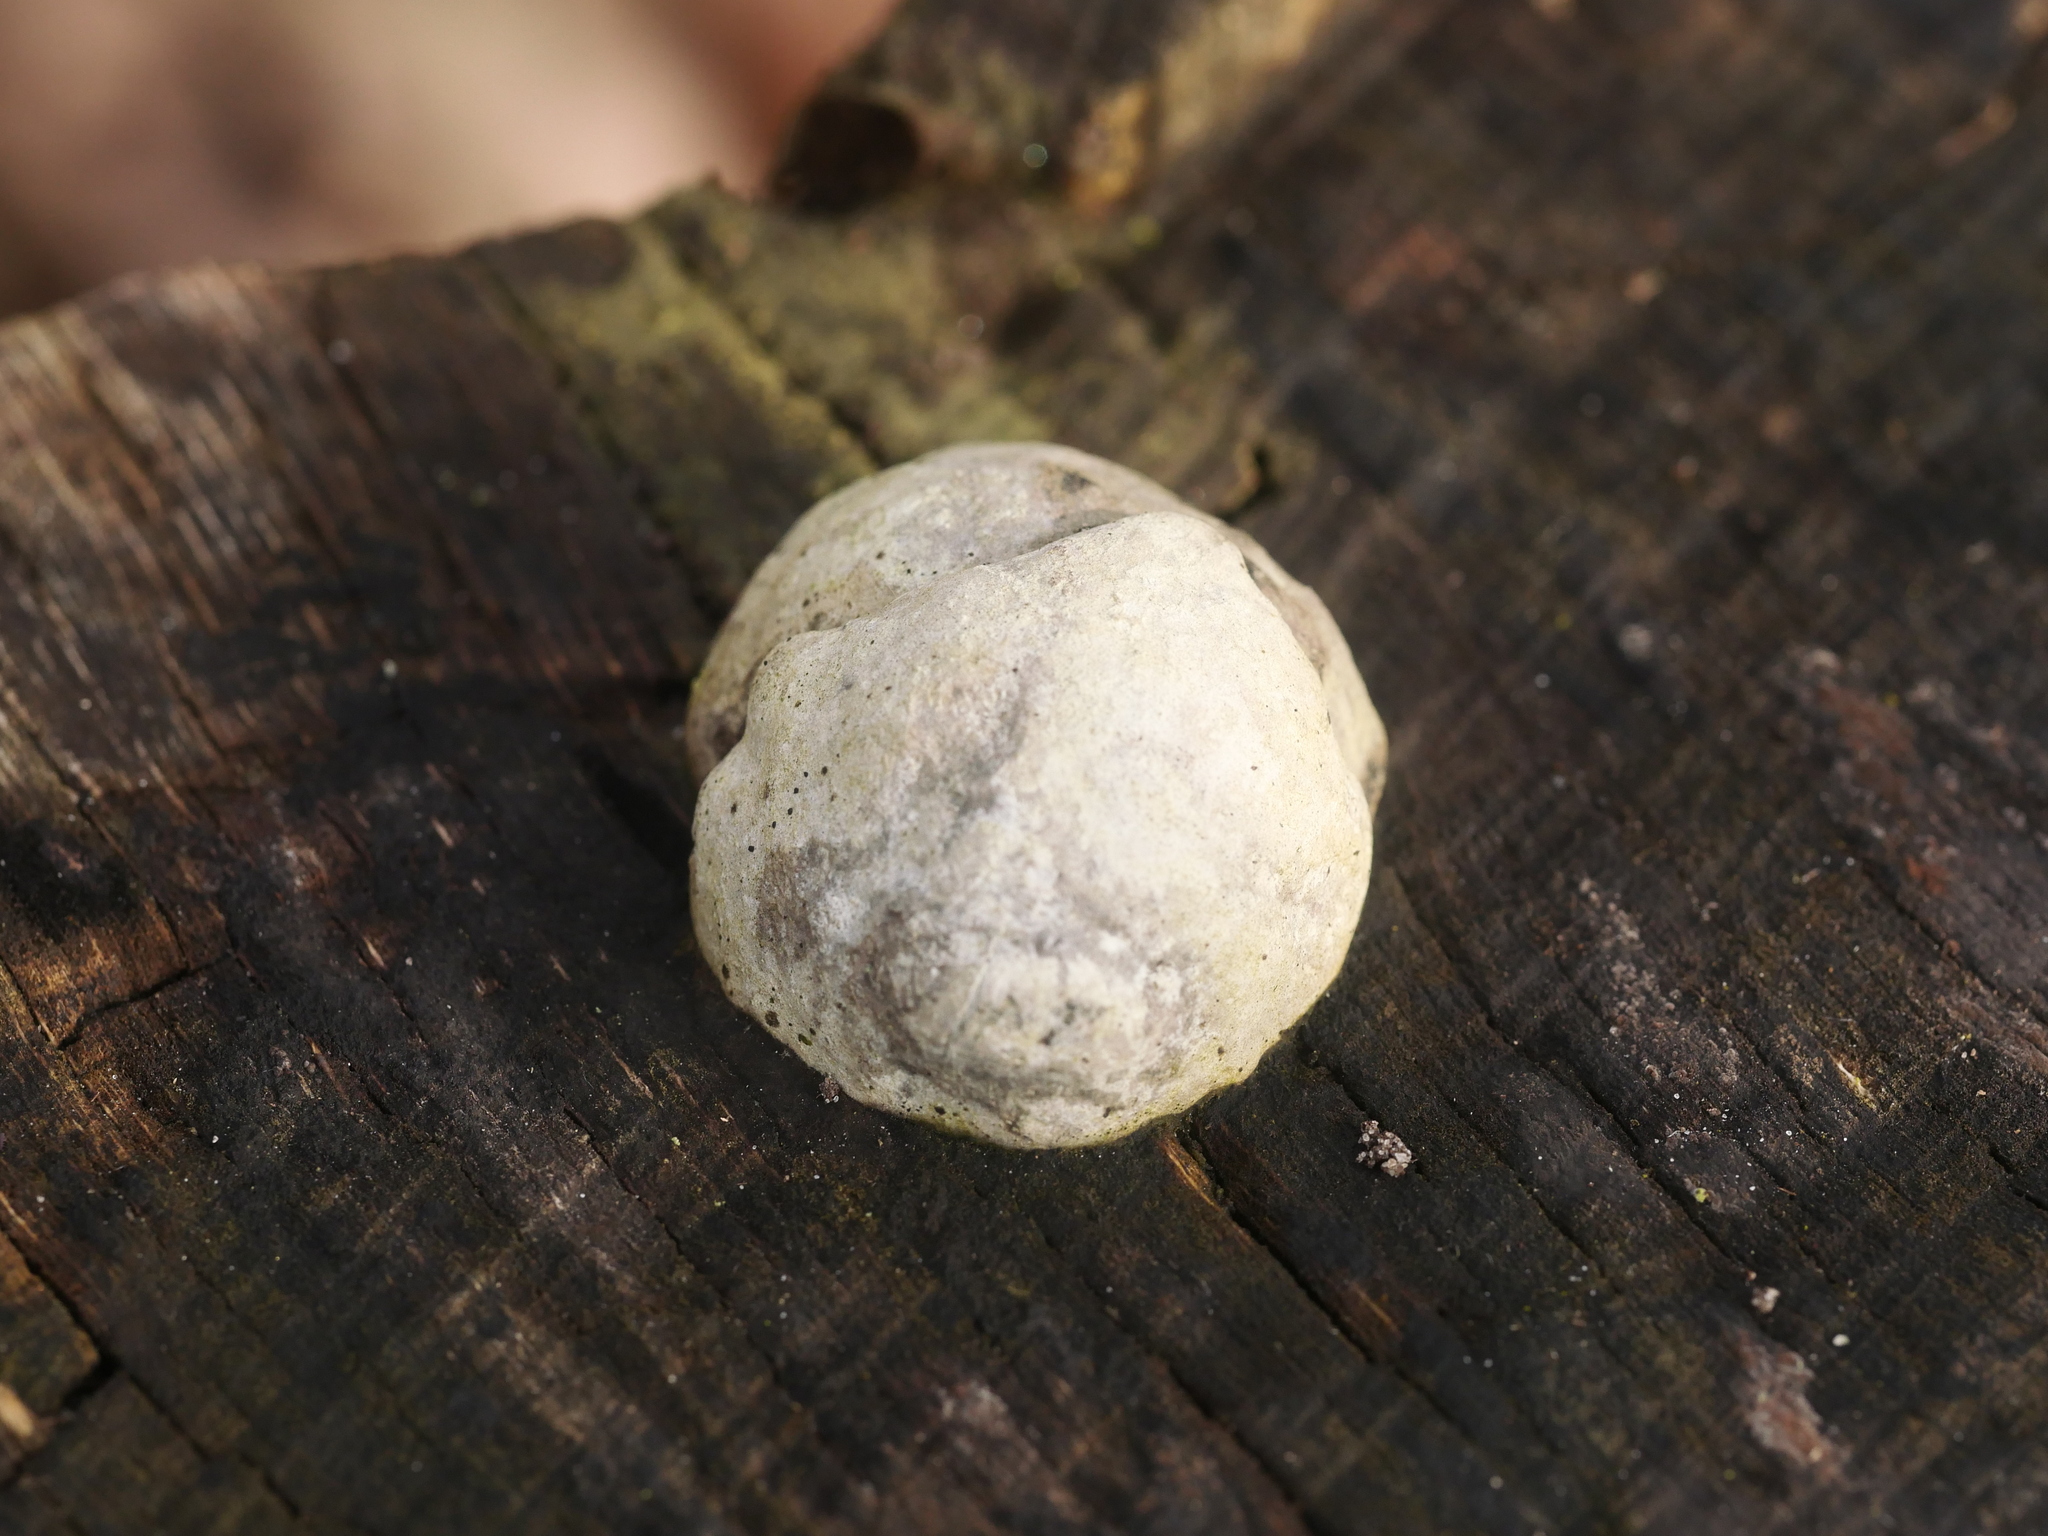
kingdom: Protozoa
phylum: Mycetozoa
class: Myxomycetes
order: Cribrariales
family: Tubiferaceae
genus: Reticularia
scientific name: Reticularia lycoperdon
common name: False puffball
